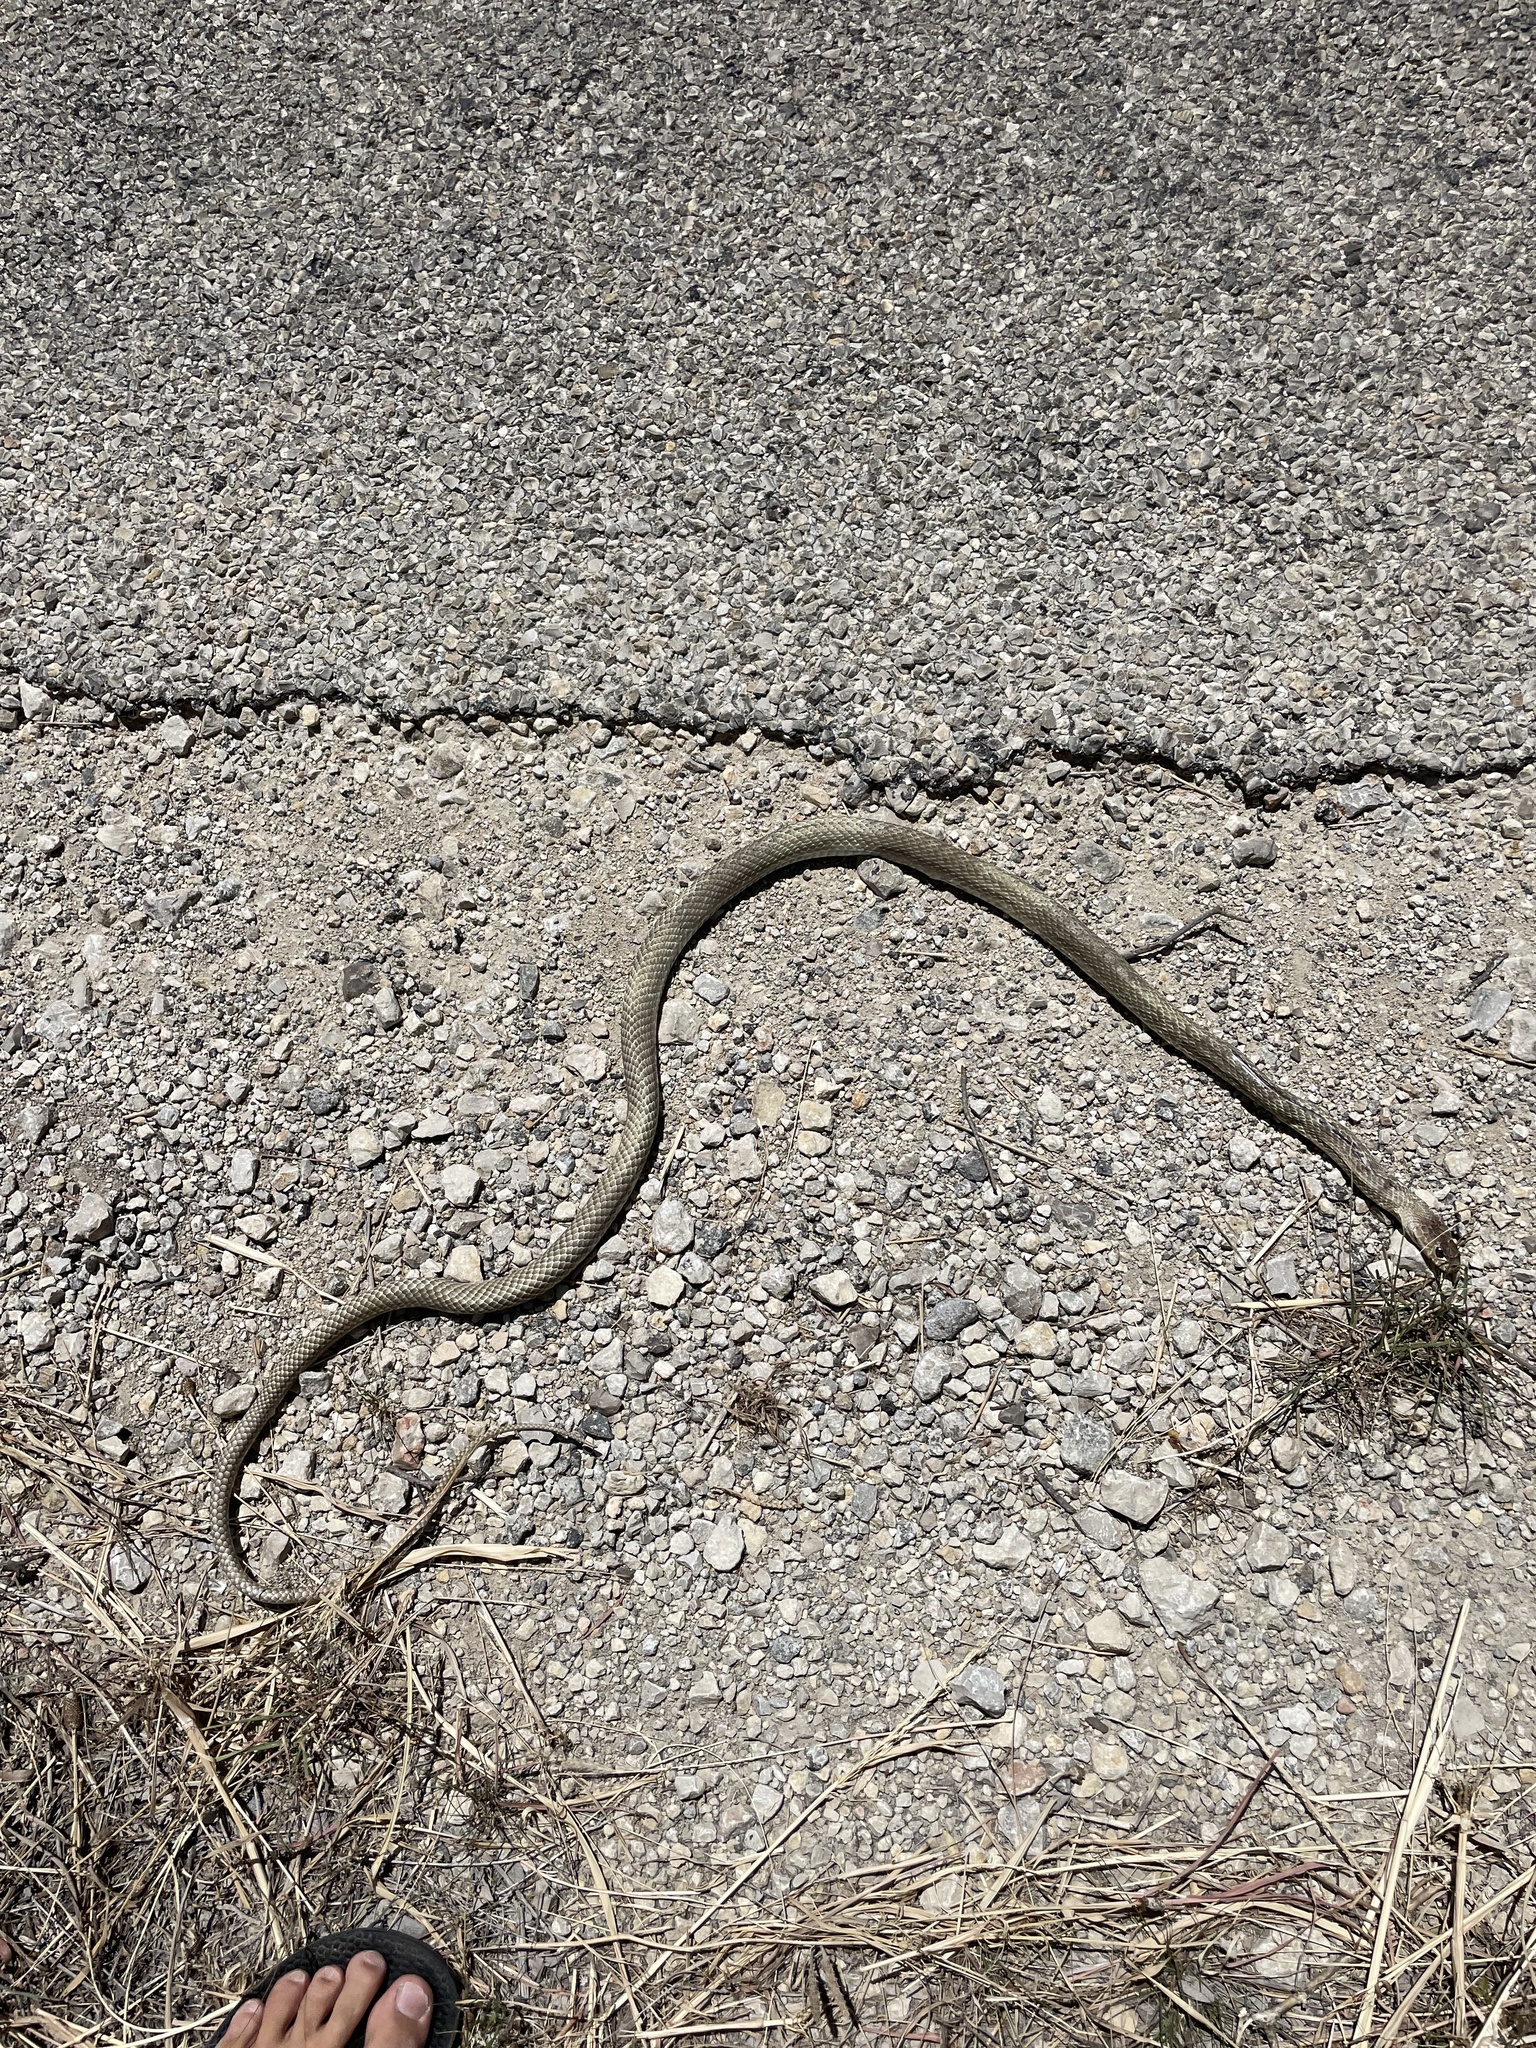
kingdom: Animalia
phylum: Chordata
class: Squamata
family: Colubridae
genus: Masticophis
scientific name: Masticophis flagellum
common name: Coachwhip
